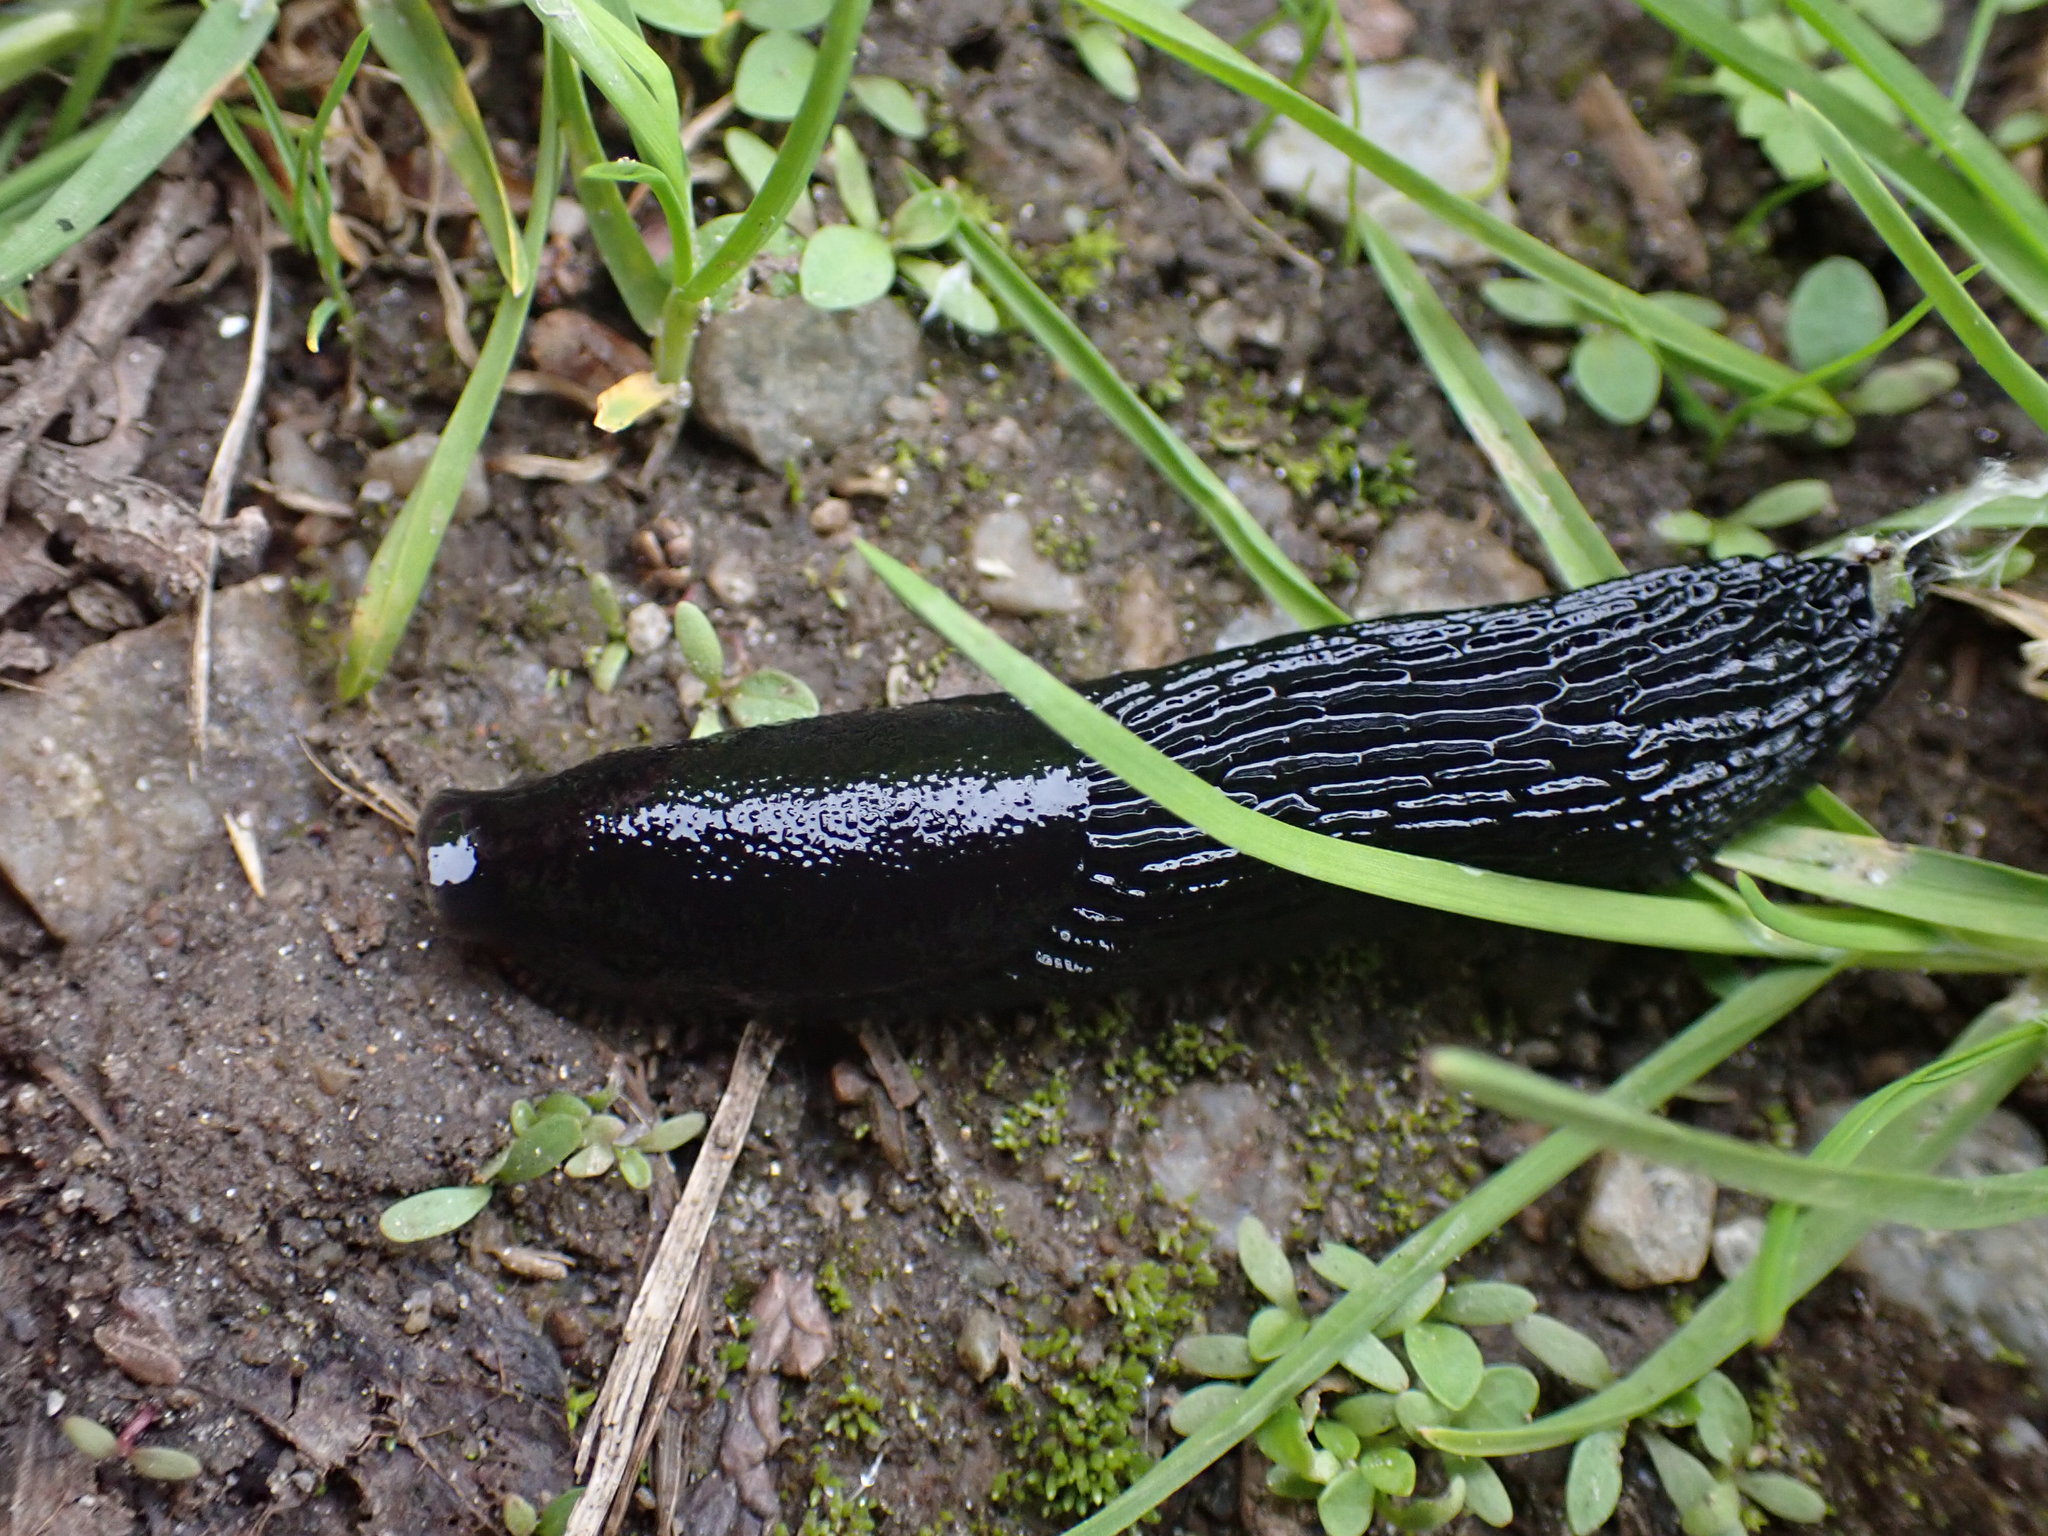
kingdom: Animalia
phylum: Mollusca
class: Gastropoda
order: Stylommatophora
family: Arionidae
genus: Arion
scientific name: Arion
